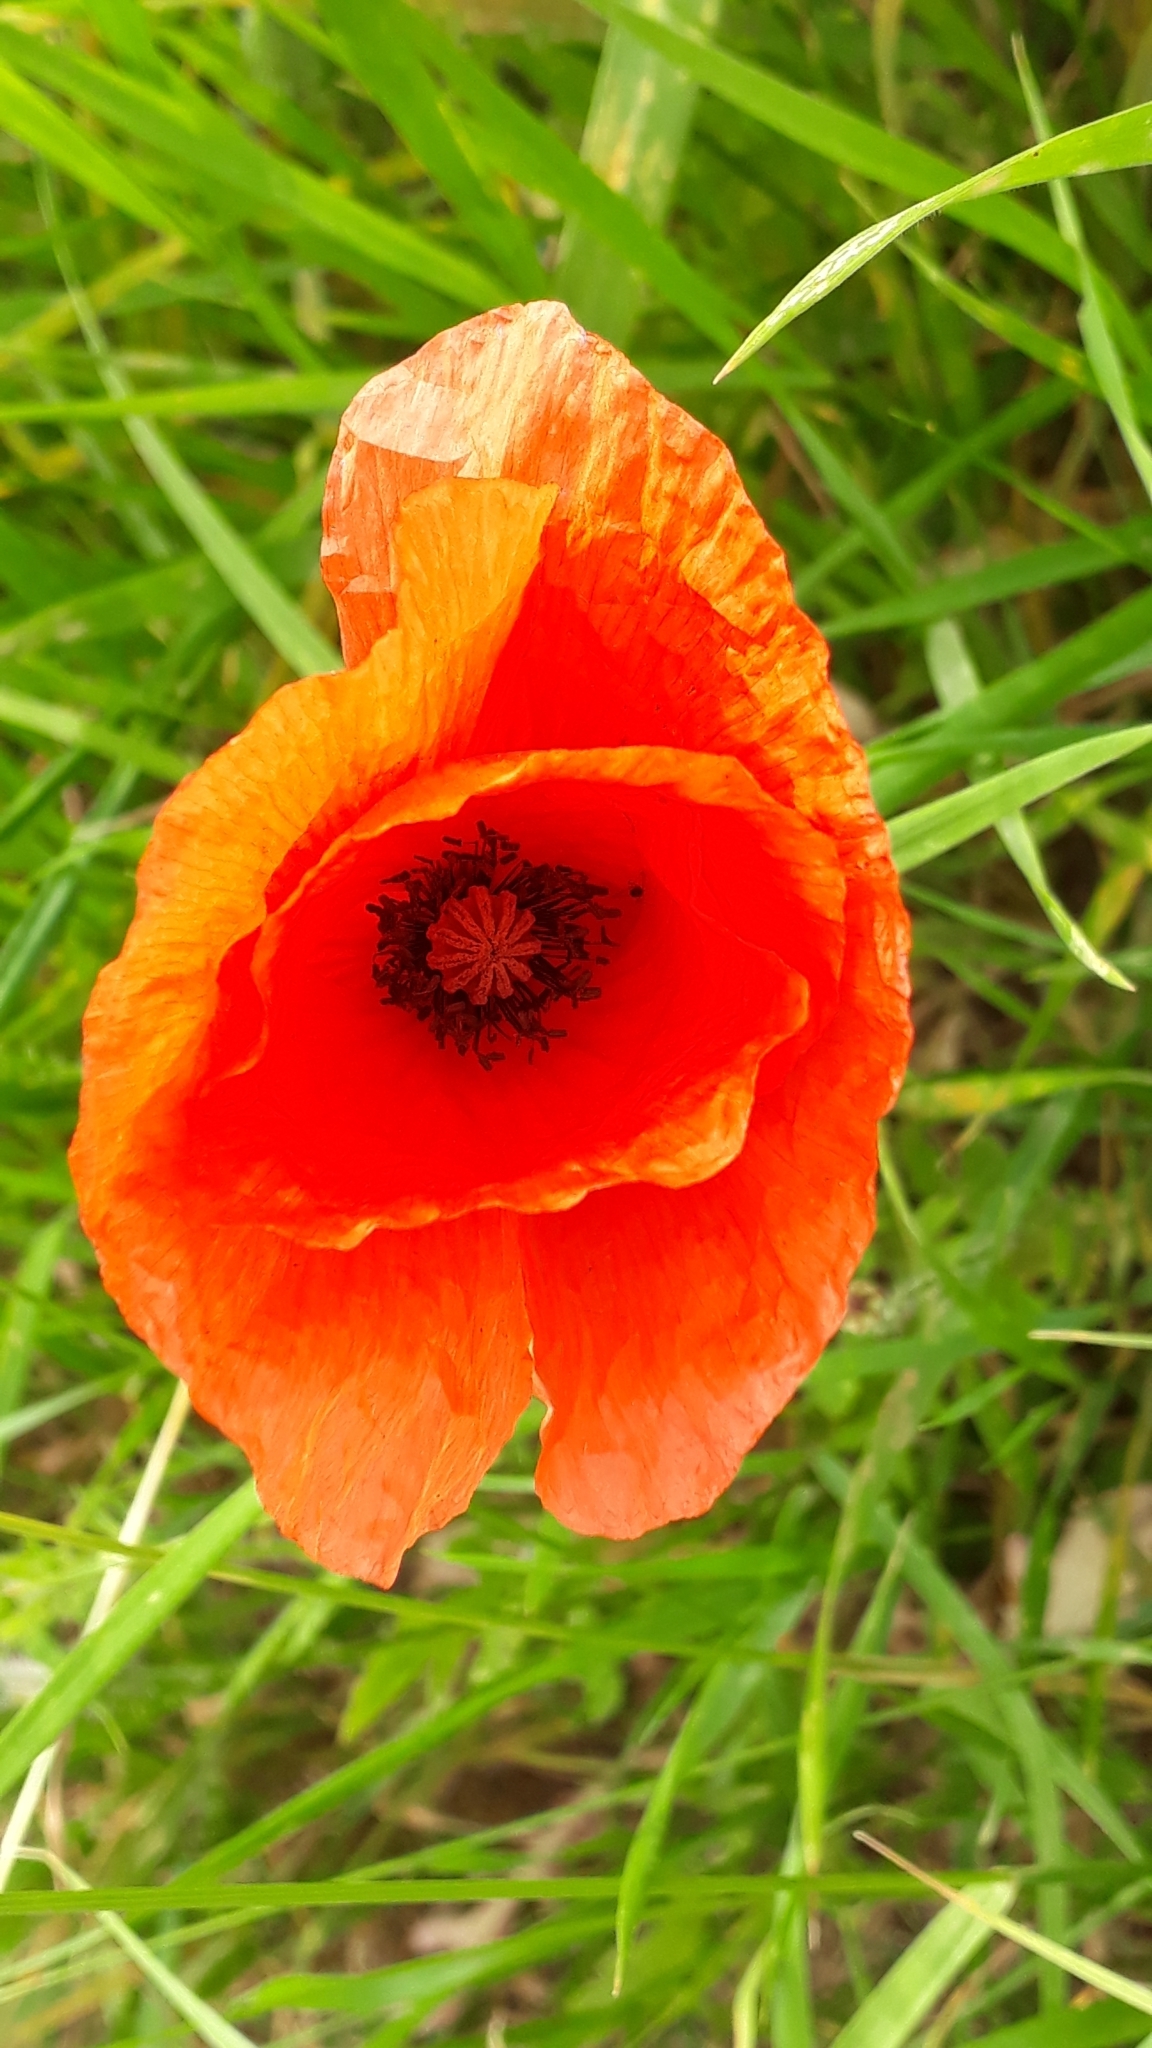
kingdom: Plantae
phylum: Tracheophyta
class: Magnoliopsida
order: Ranunculales
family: Papaveraceae
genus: Papaver
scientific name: Papaver rhoeas
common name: Corn poppy
